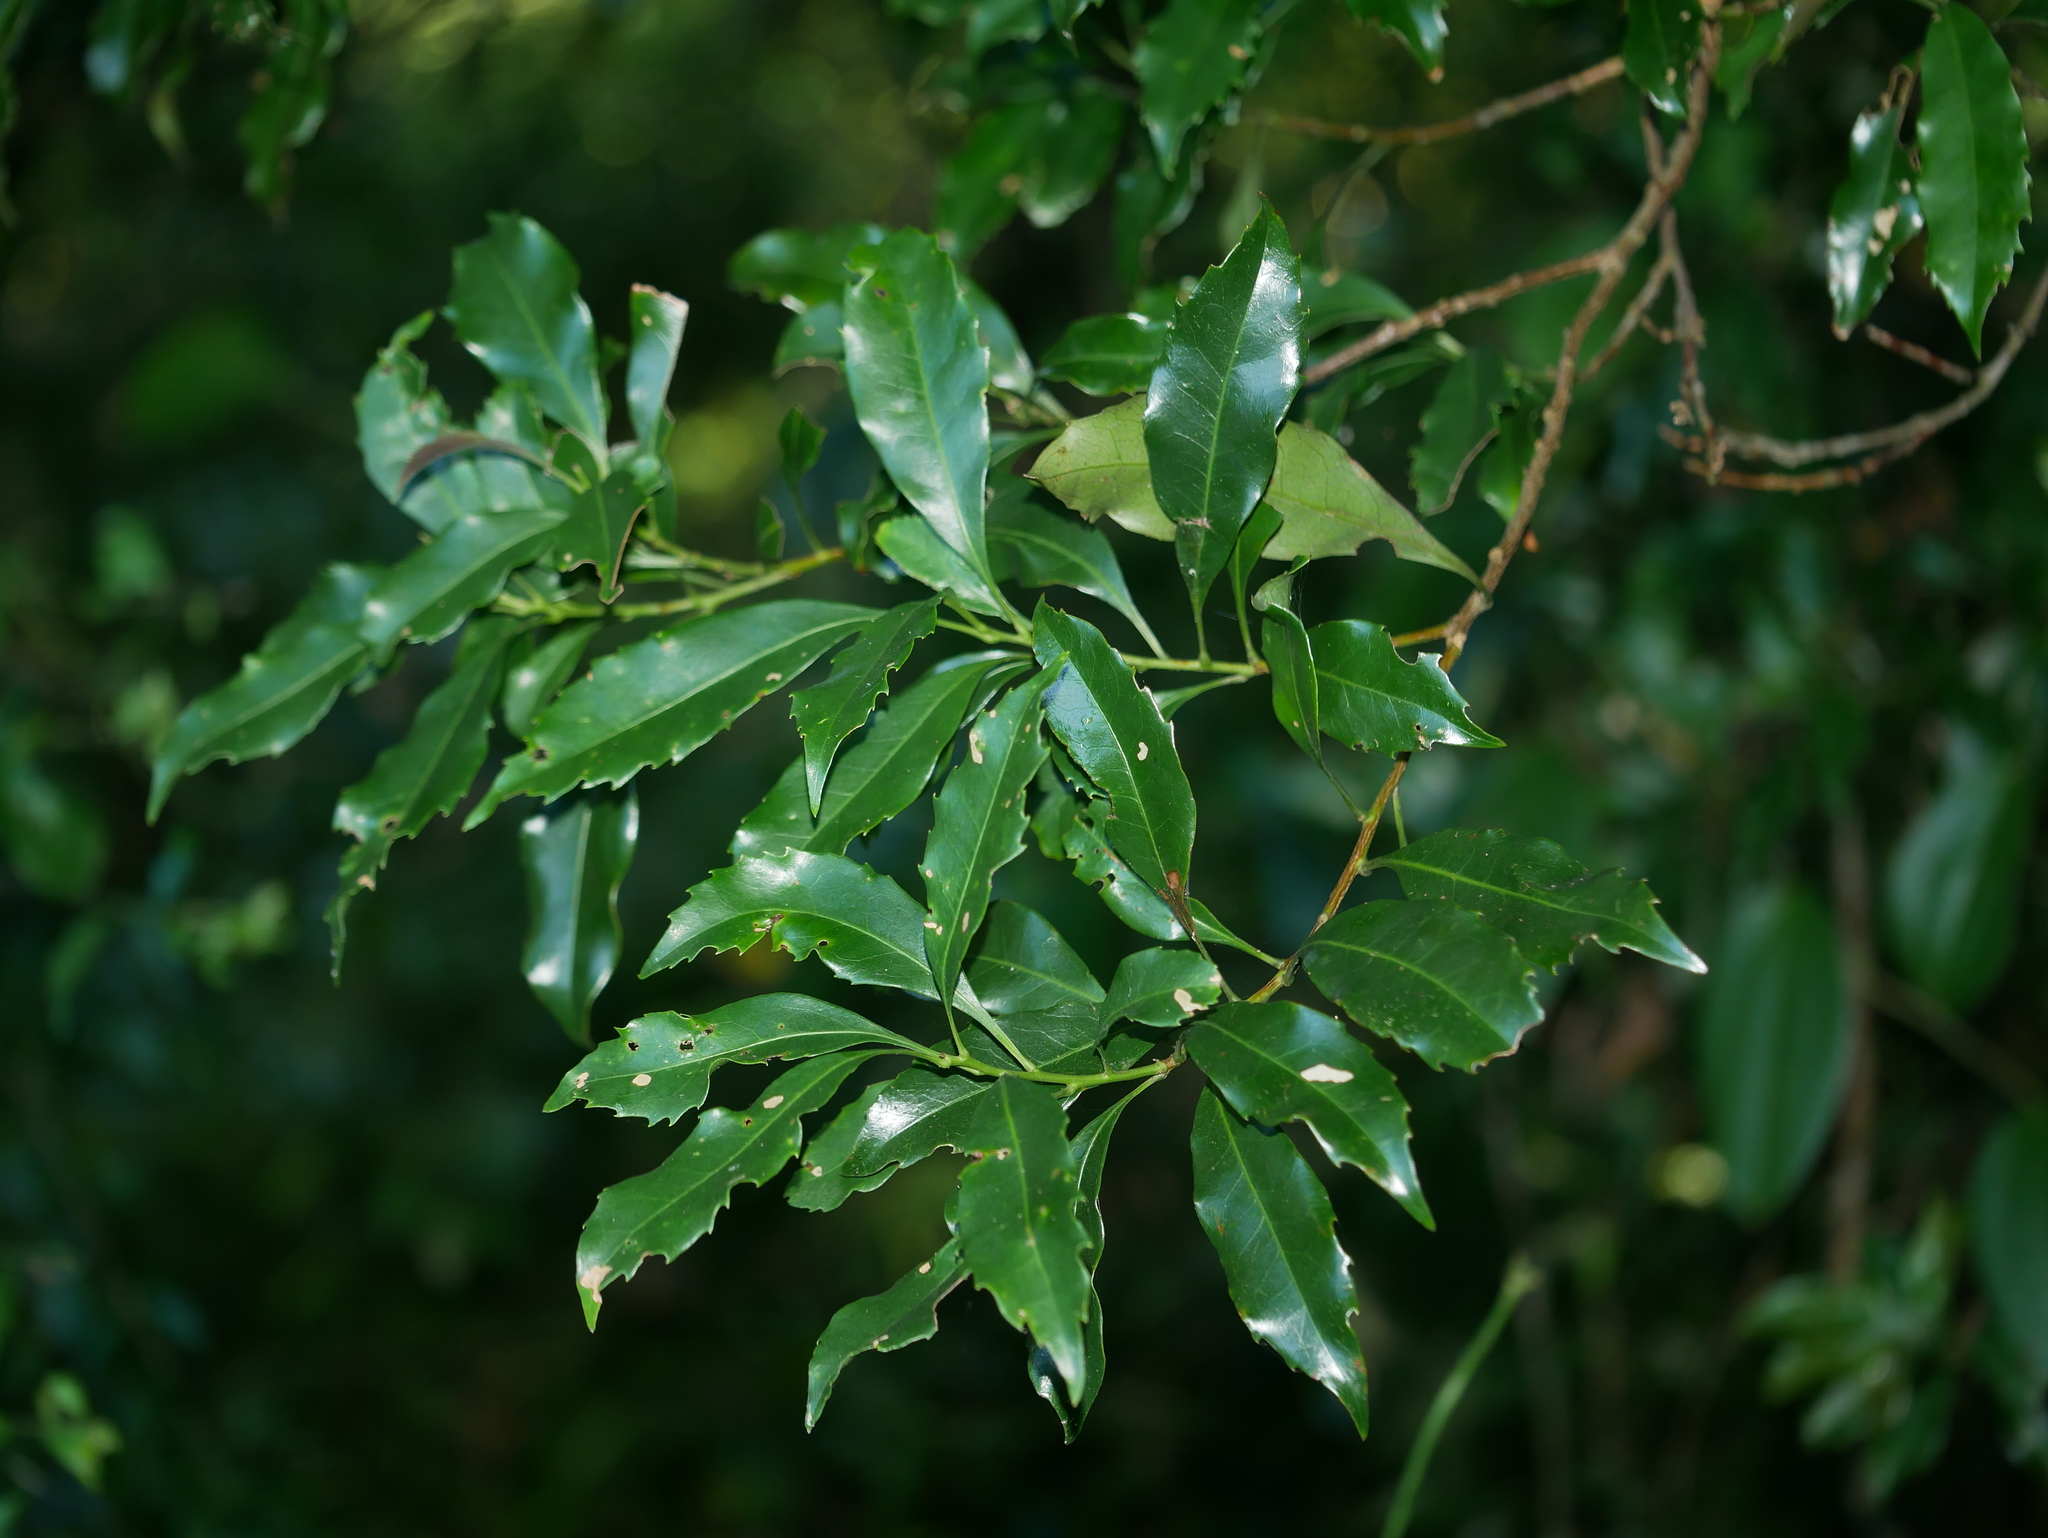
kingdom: Plantae
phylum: Tracheophyta
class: Magnoliopsida
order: Proteales
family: Proteaceae
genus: Helicia
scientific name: Helicia cochinchinensis
